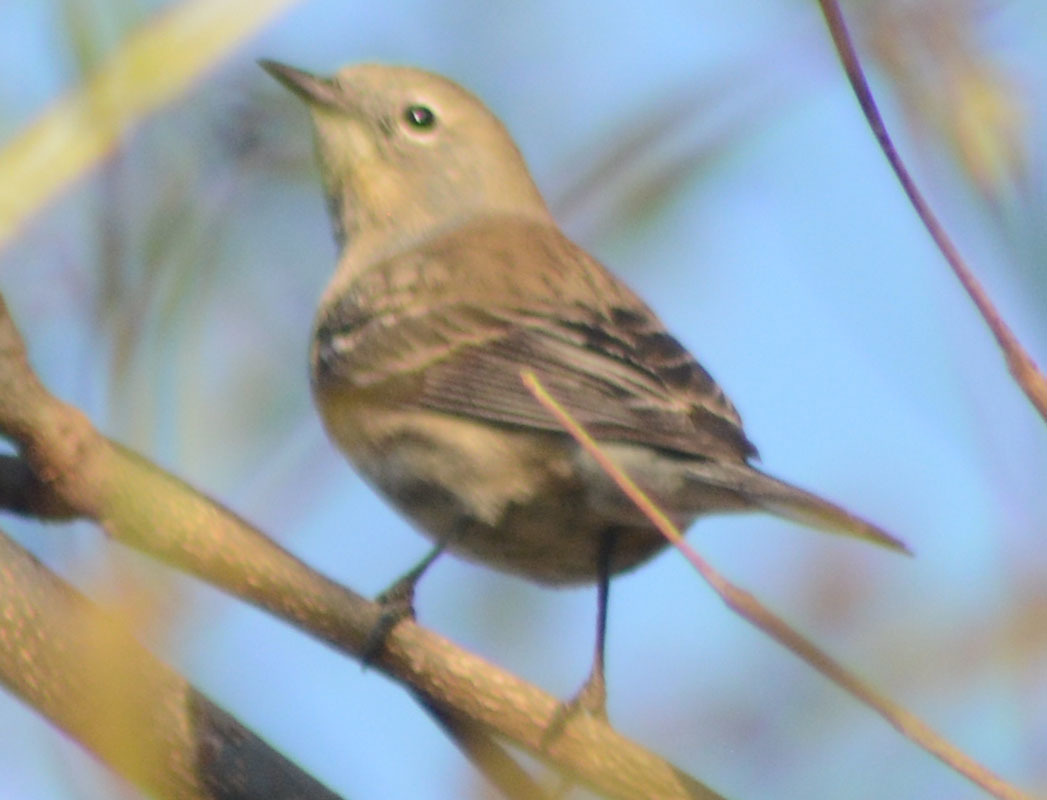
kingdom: Animalia
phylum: Chordata
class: Aves
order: Passeriformes
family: Parulidae
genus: Setophaga
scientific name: Setophaga coronata
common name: Myrtle warbler
